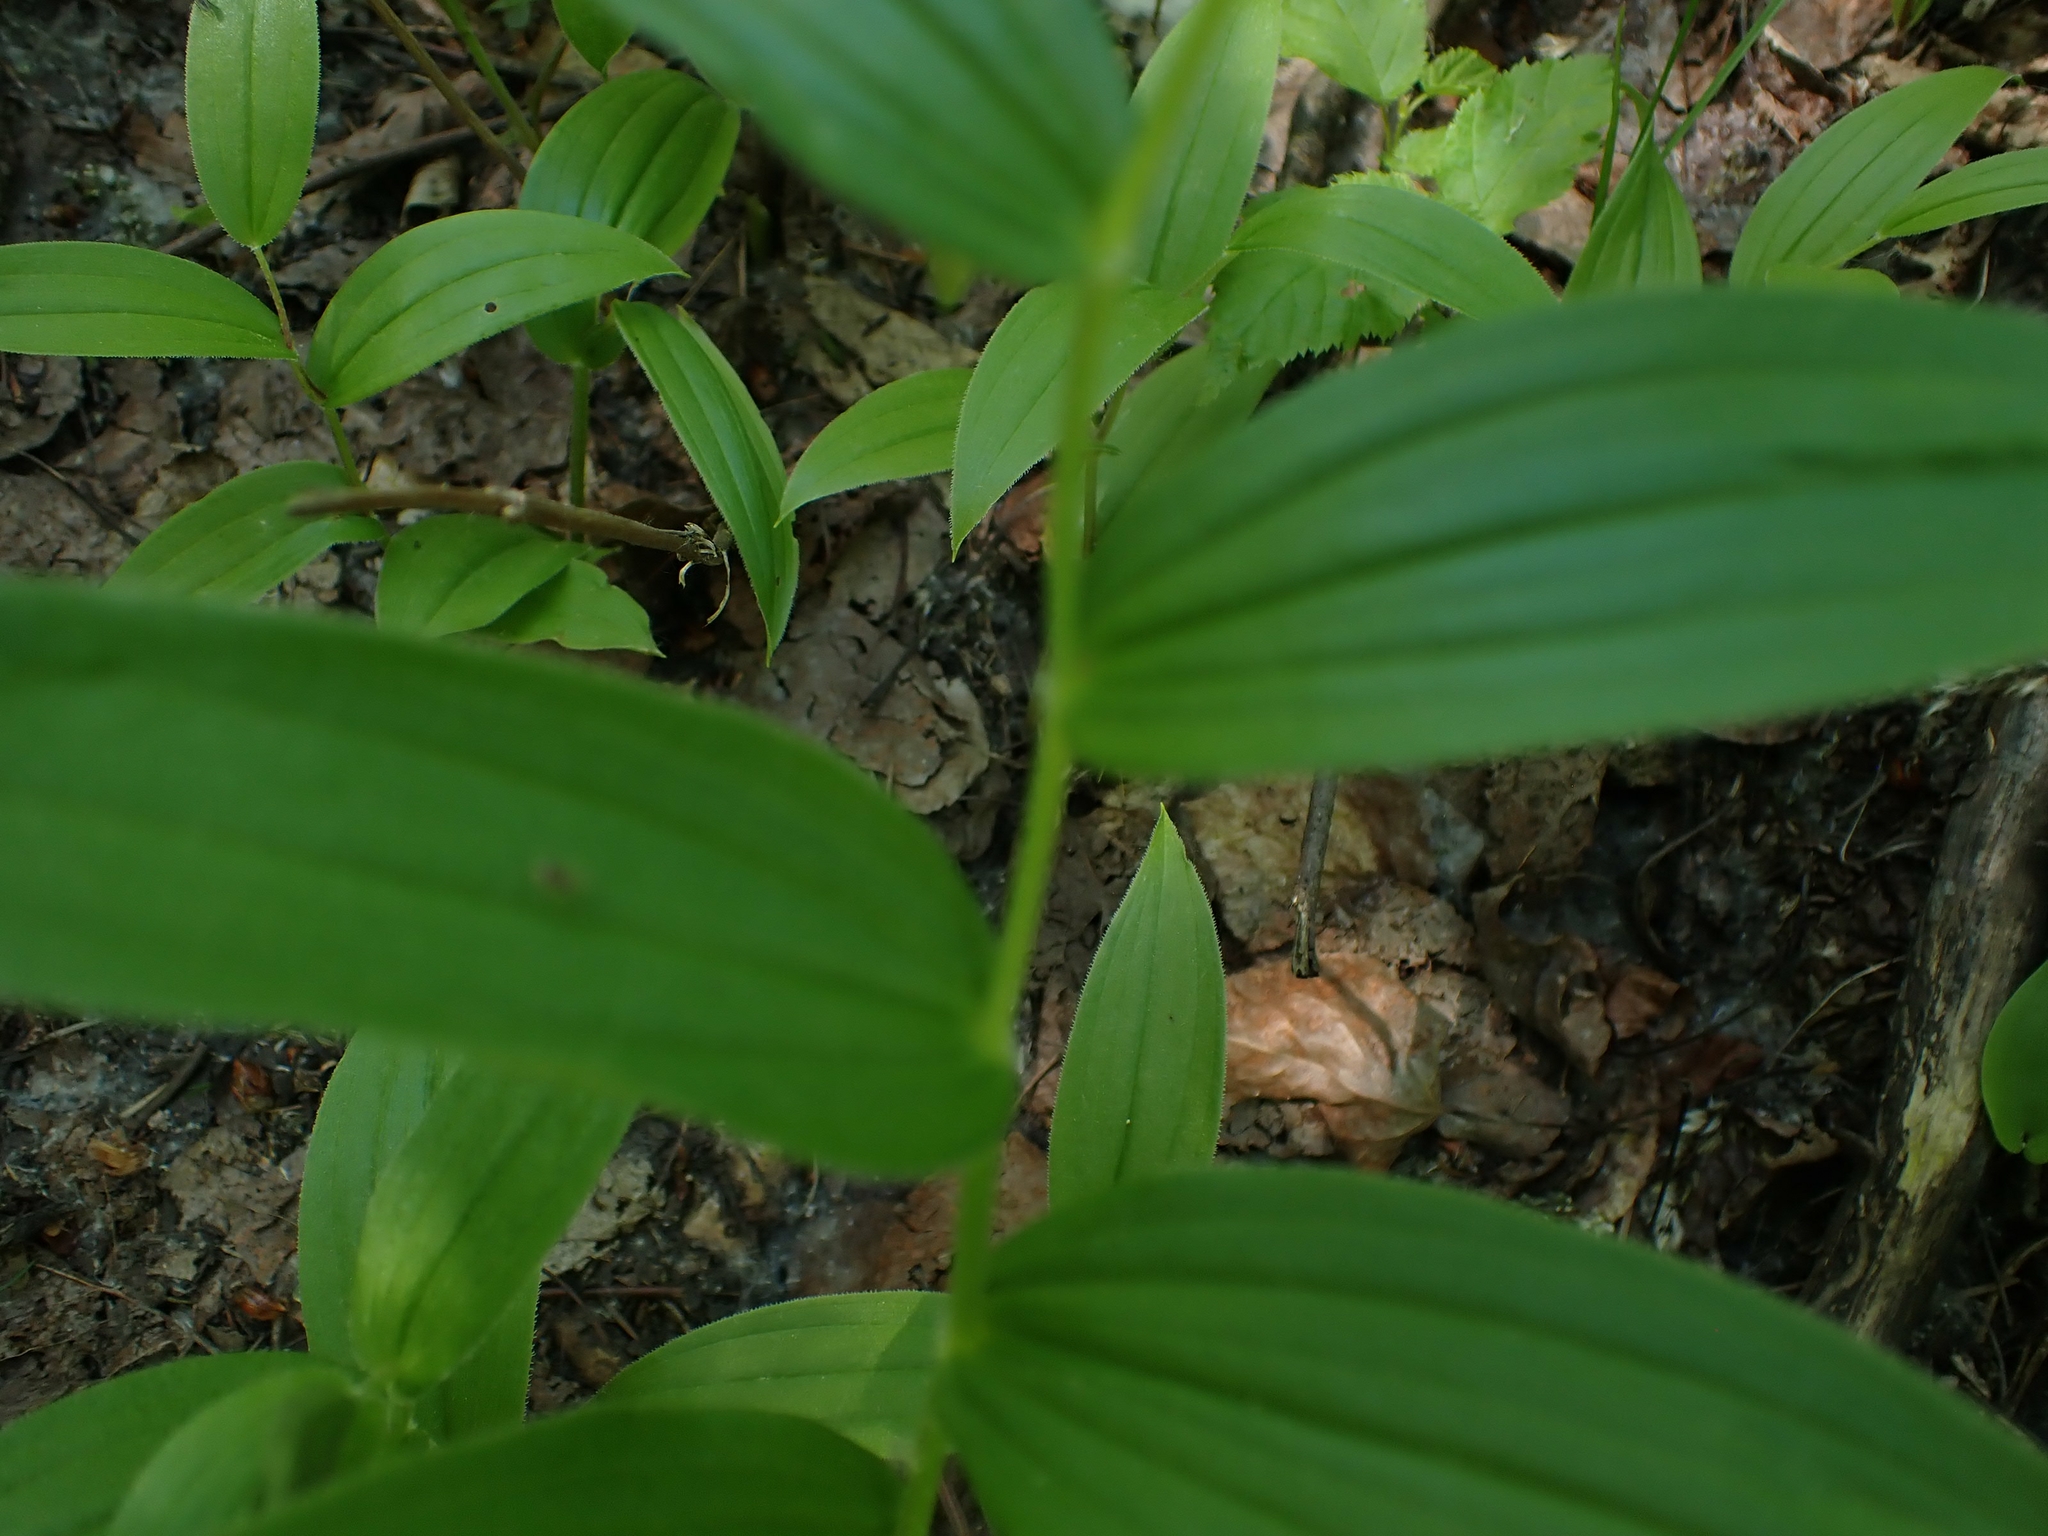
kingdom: Plantae
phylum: Tracheophyta
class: Liliopsida
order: Liliales
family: Liliaceae
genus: Streptopus
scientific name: Streptopus lanceolatus
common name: Rose mandarin
